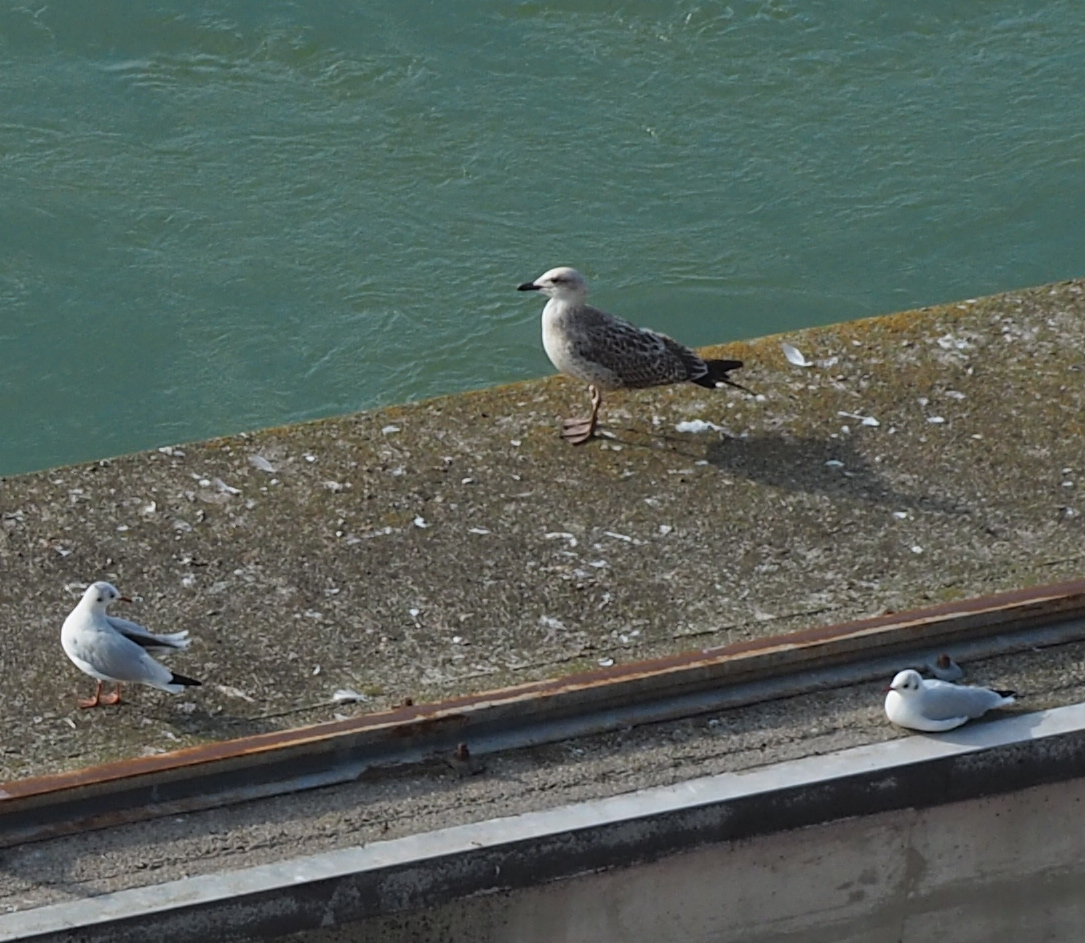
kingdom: Animalia
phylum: Chordata
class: Aves
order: Charadriiformes
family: Laridae
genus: Larus
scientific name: Larus michahellis
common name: Yellow-legged gull
